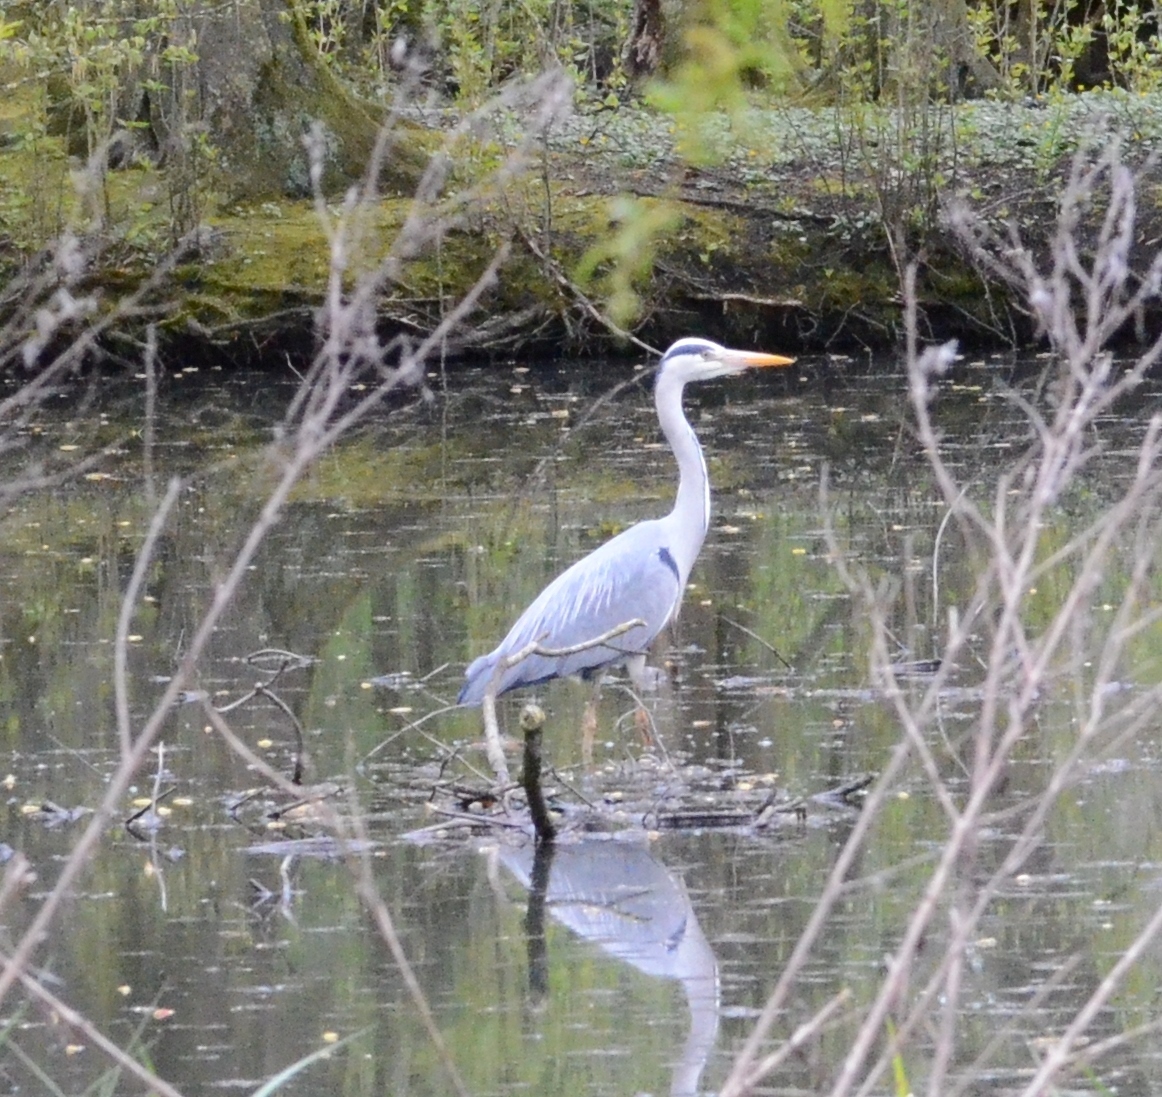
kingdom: Animalia
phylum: Chordata
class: Aves
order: Pelecaniformes
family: Ardeidae
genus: Ardea
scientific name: Ardea cinerea
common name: Grey heron
